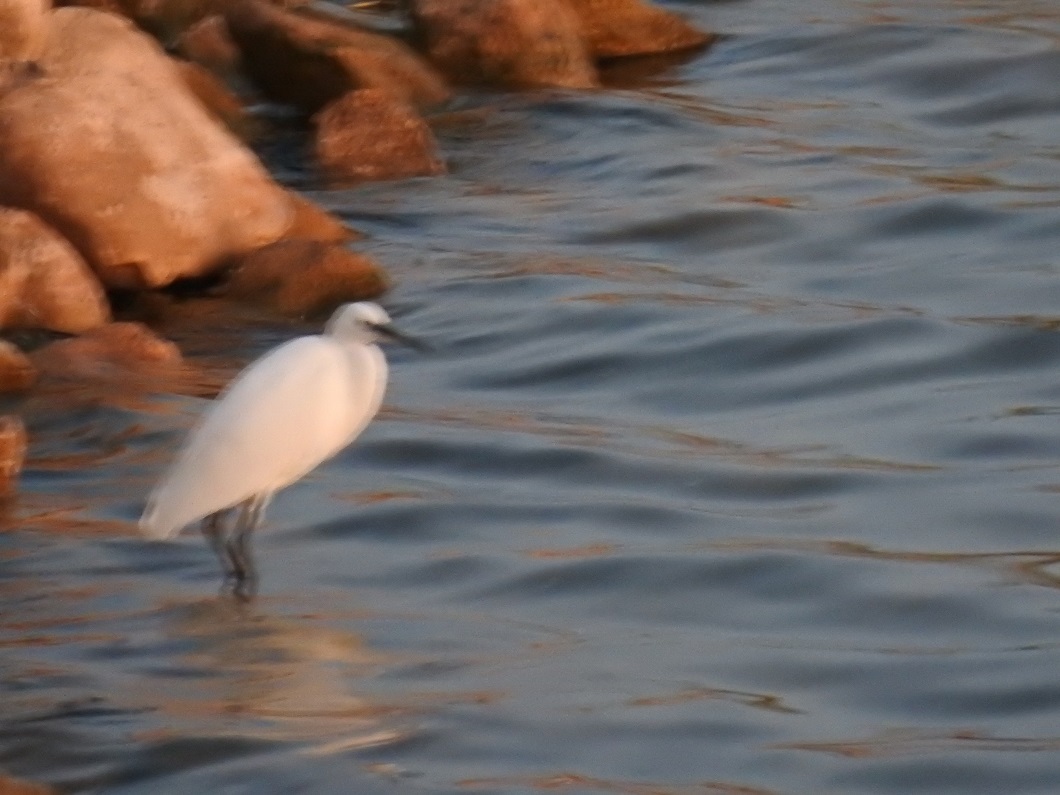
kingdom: Animalia
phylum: Chordata
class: Aves
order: Pelecaniformes
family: Ardeidae
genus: Egretta
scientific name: Egretta garzetta
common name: Little egret
